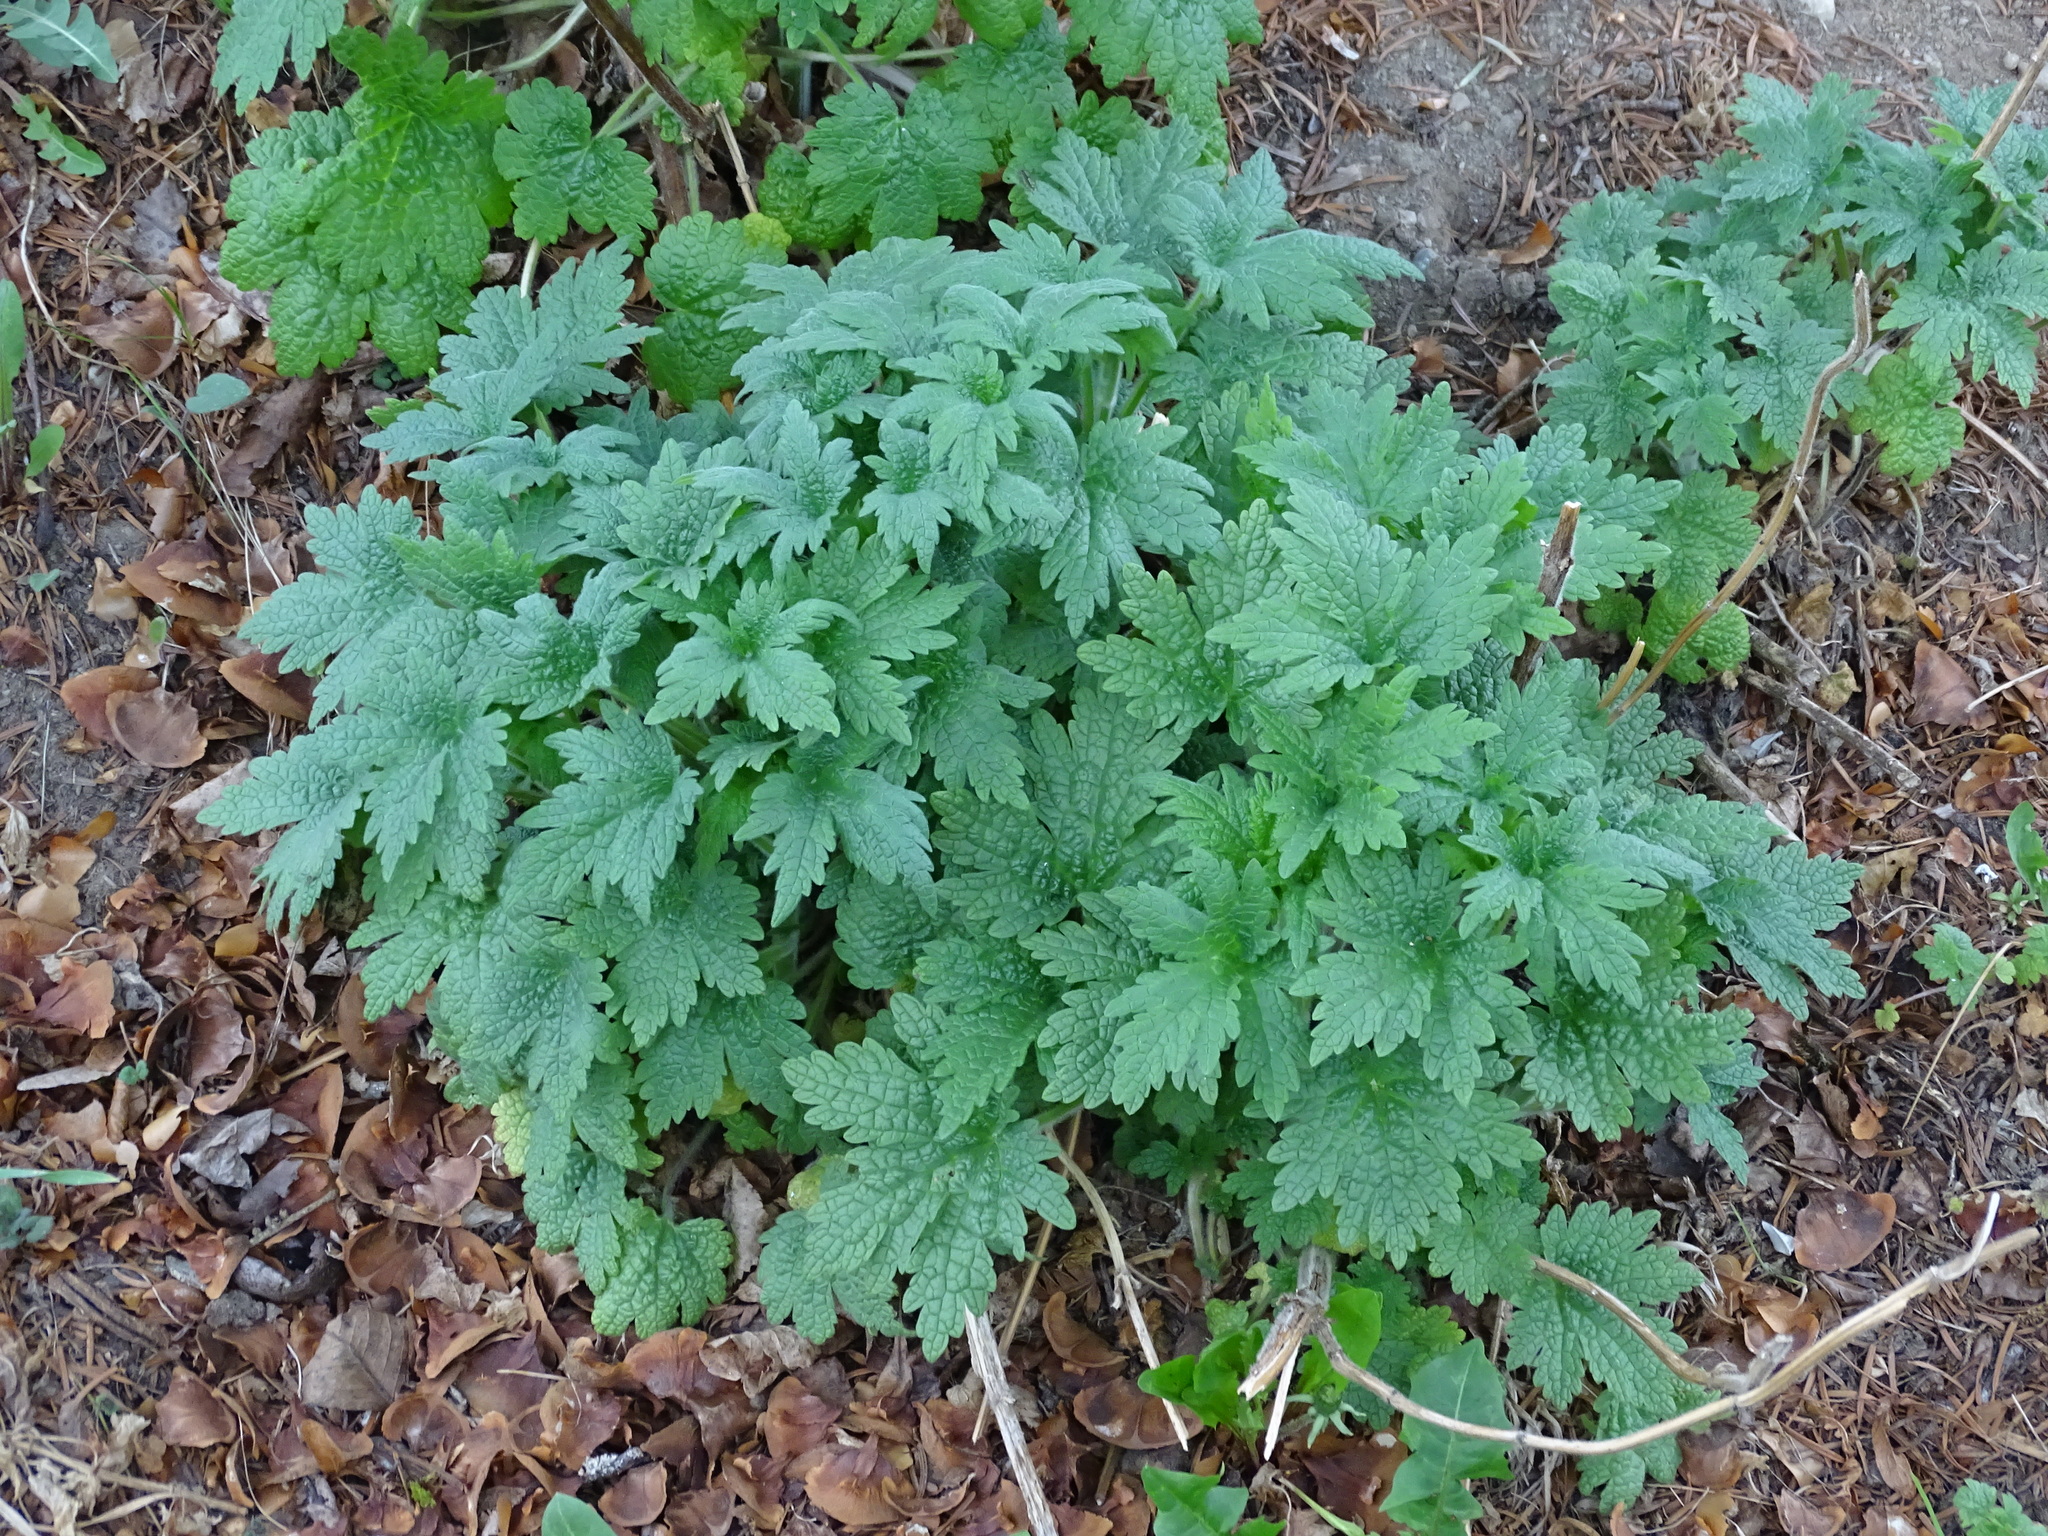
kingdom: Plantae
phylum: Tracheophyta
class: Magnoliopsida
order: Lamiales
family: Lamiaceae
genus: Leonurus
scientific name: Leonurus cardiaca
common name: Motherwort
